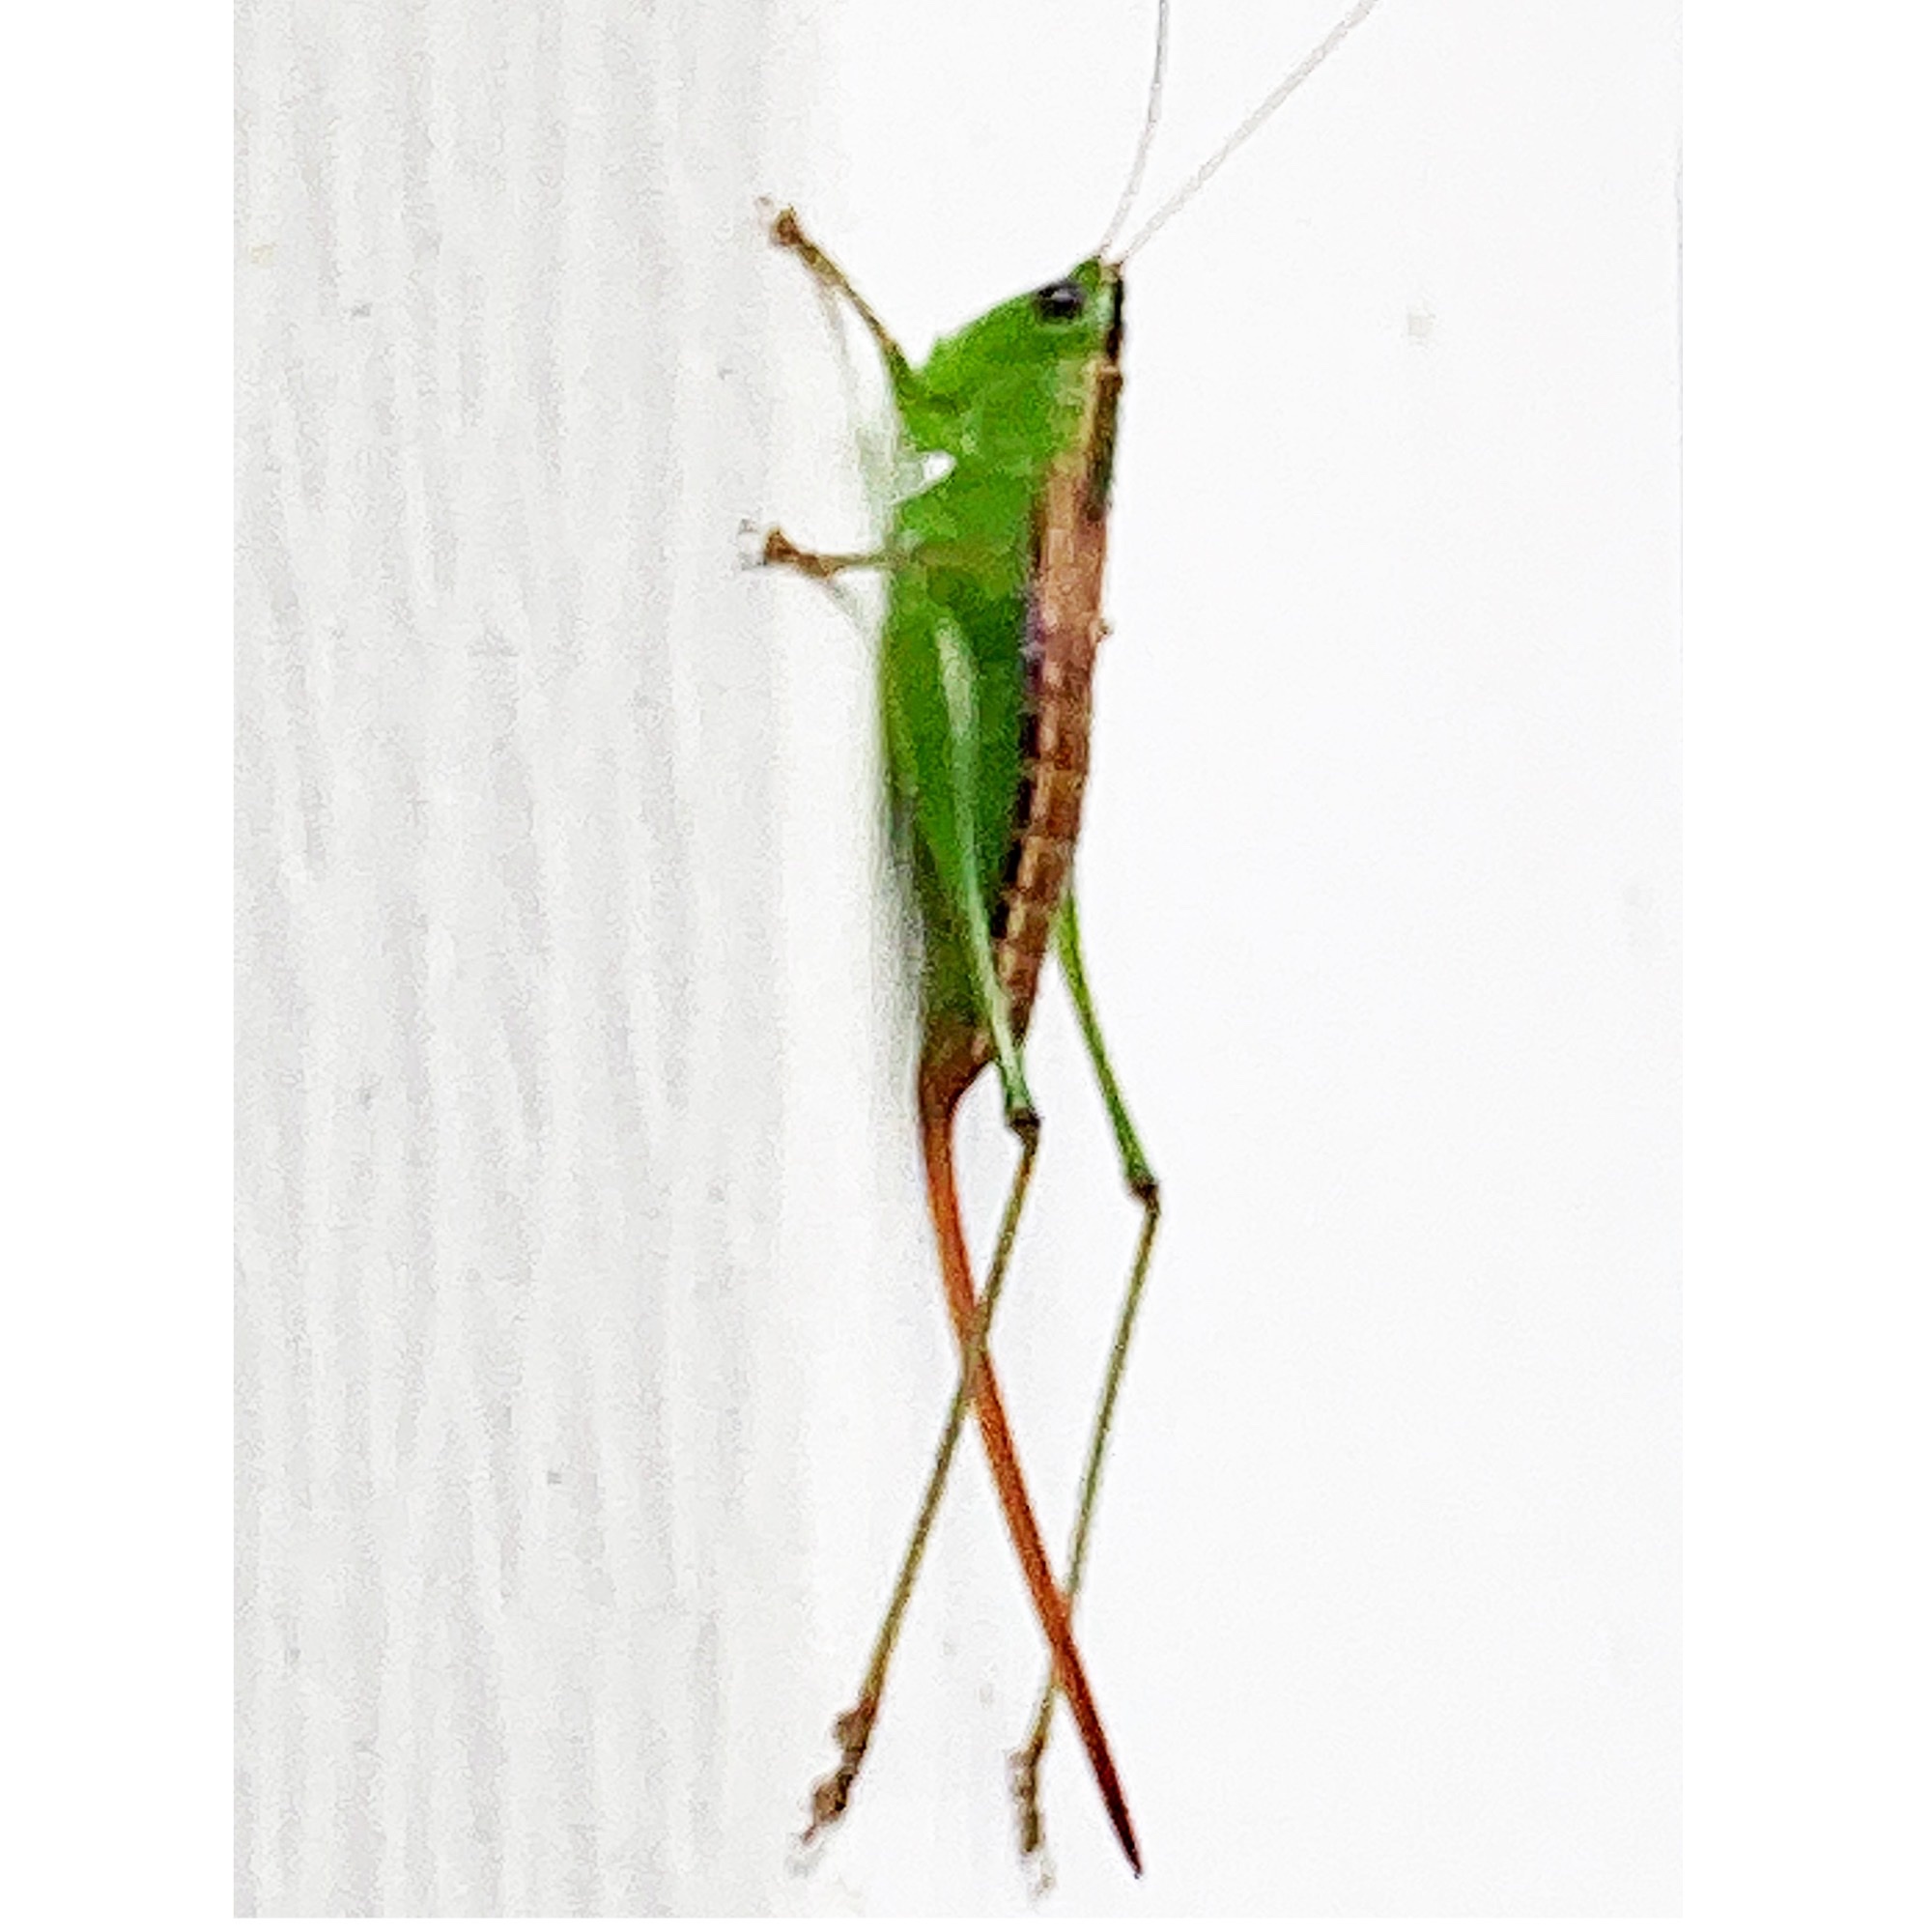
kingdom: Animalia
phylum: Arthropoda
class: Insecta
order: Orthoptera
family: Tettigoniidae
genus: Conocephalus
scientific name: Conocephalus strictus
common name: Straight-lanced katydid
